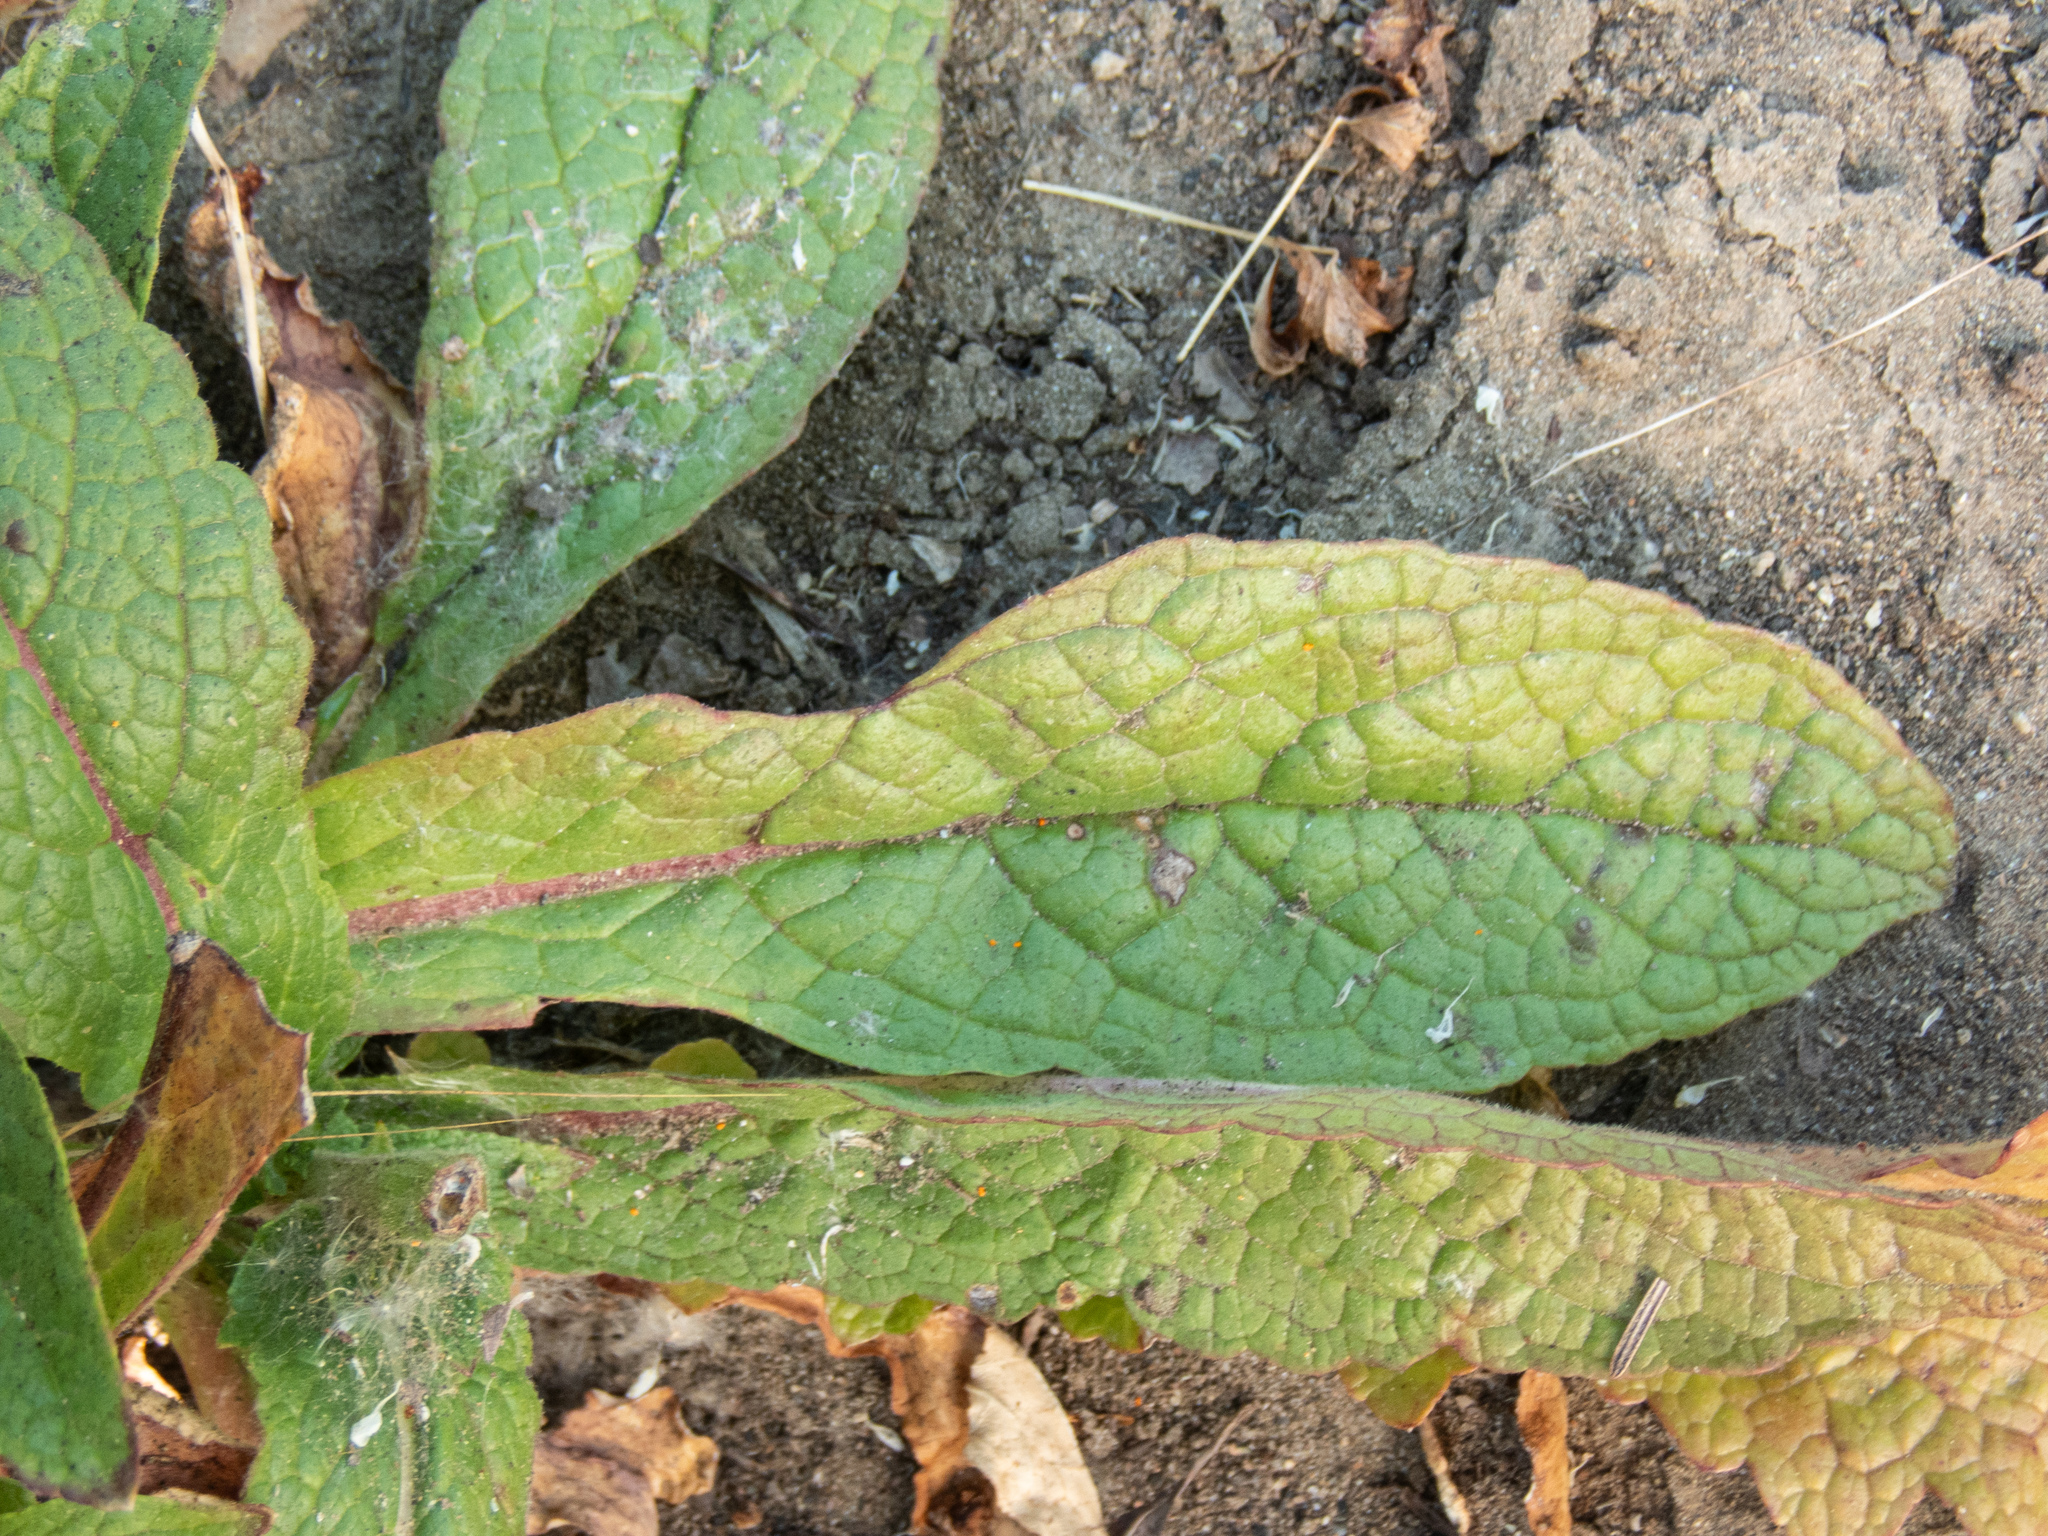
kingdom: Plantae
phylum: Tracheophyta
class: Magnoliopsida
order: Lamiales
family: Scrophulariaceae
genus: Verbascum
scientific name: Verbascum virgatum
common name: Twiggy mullein
